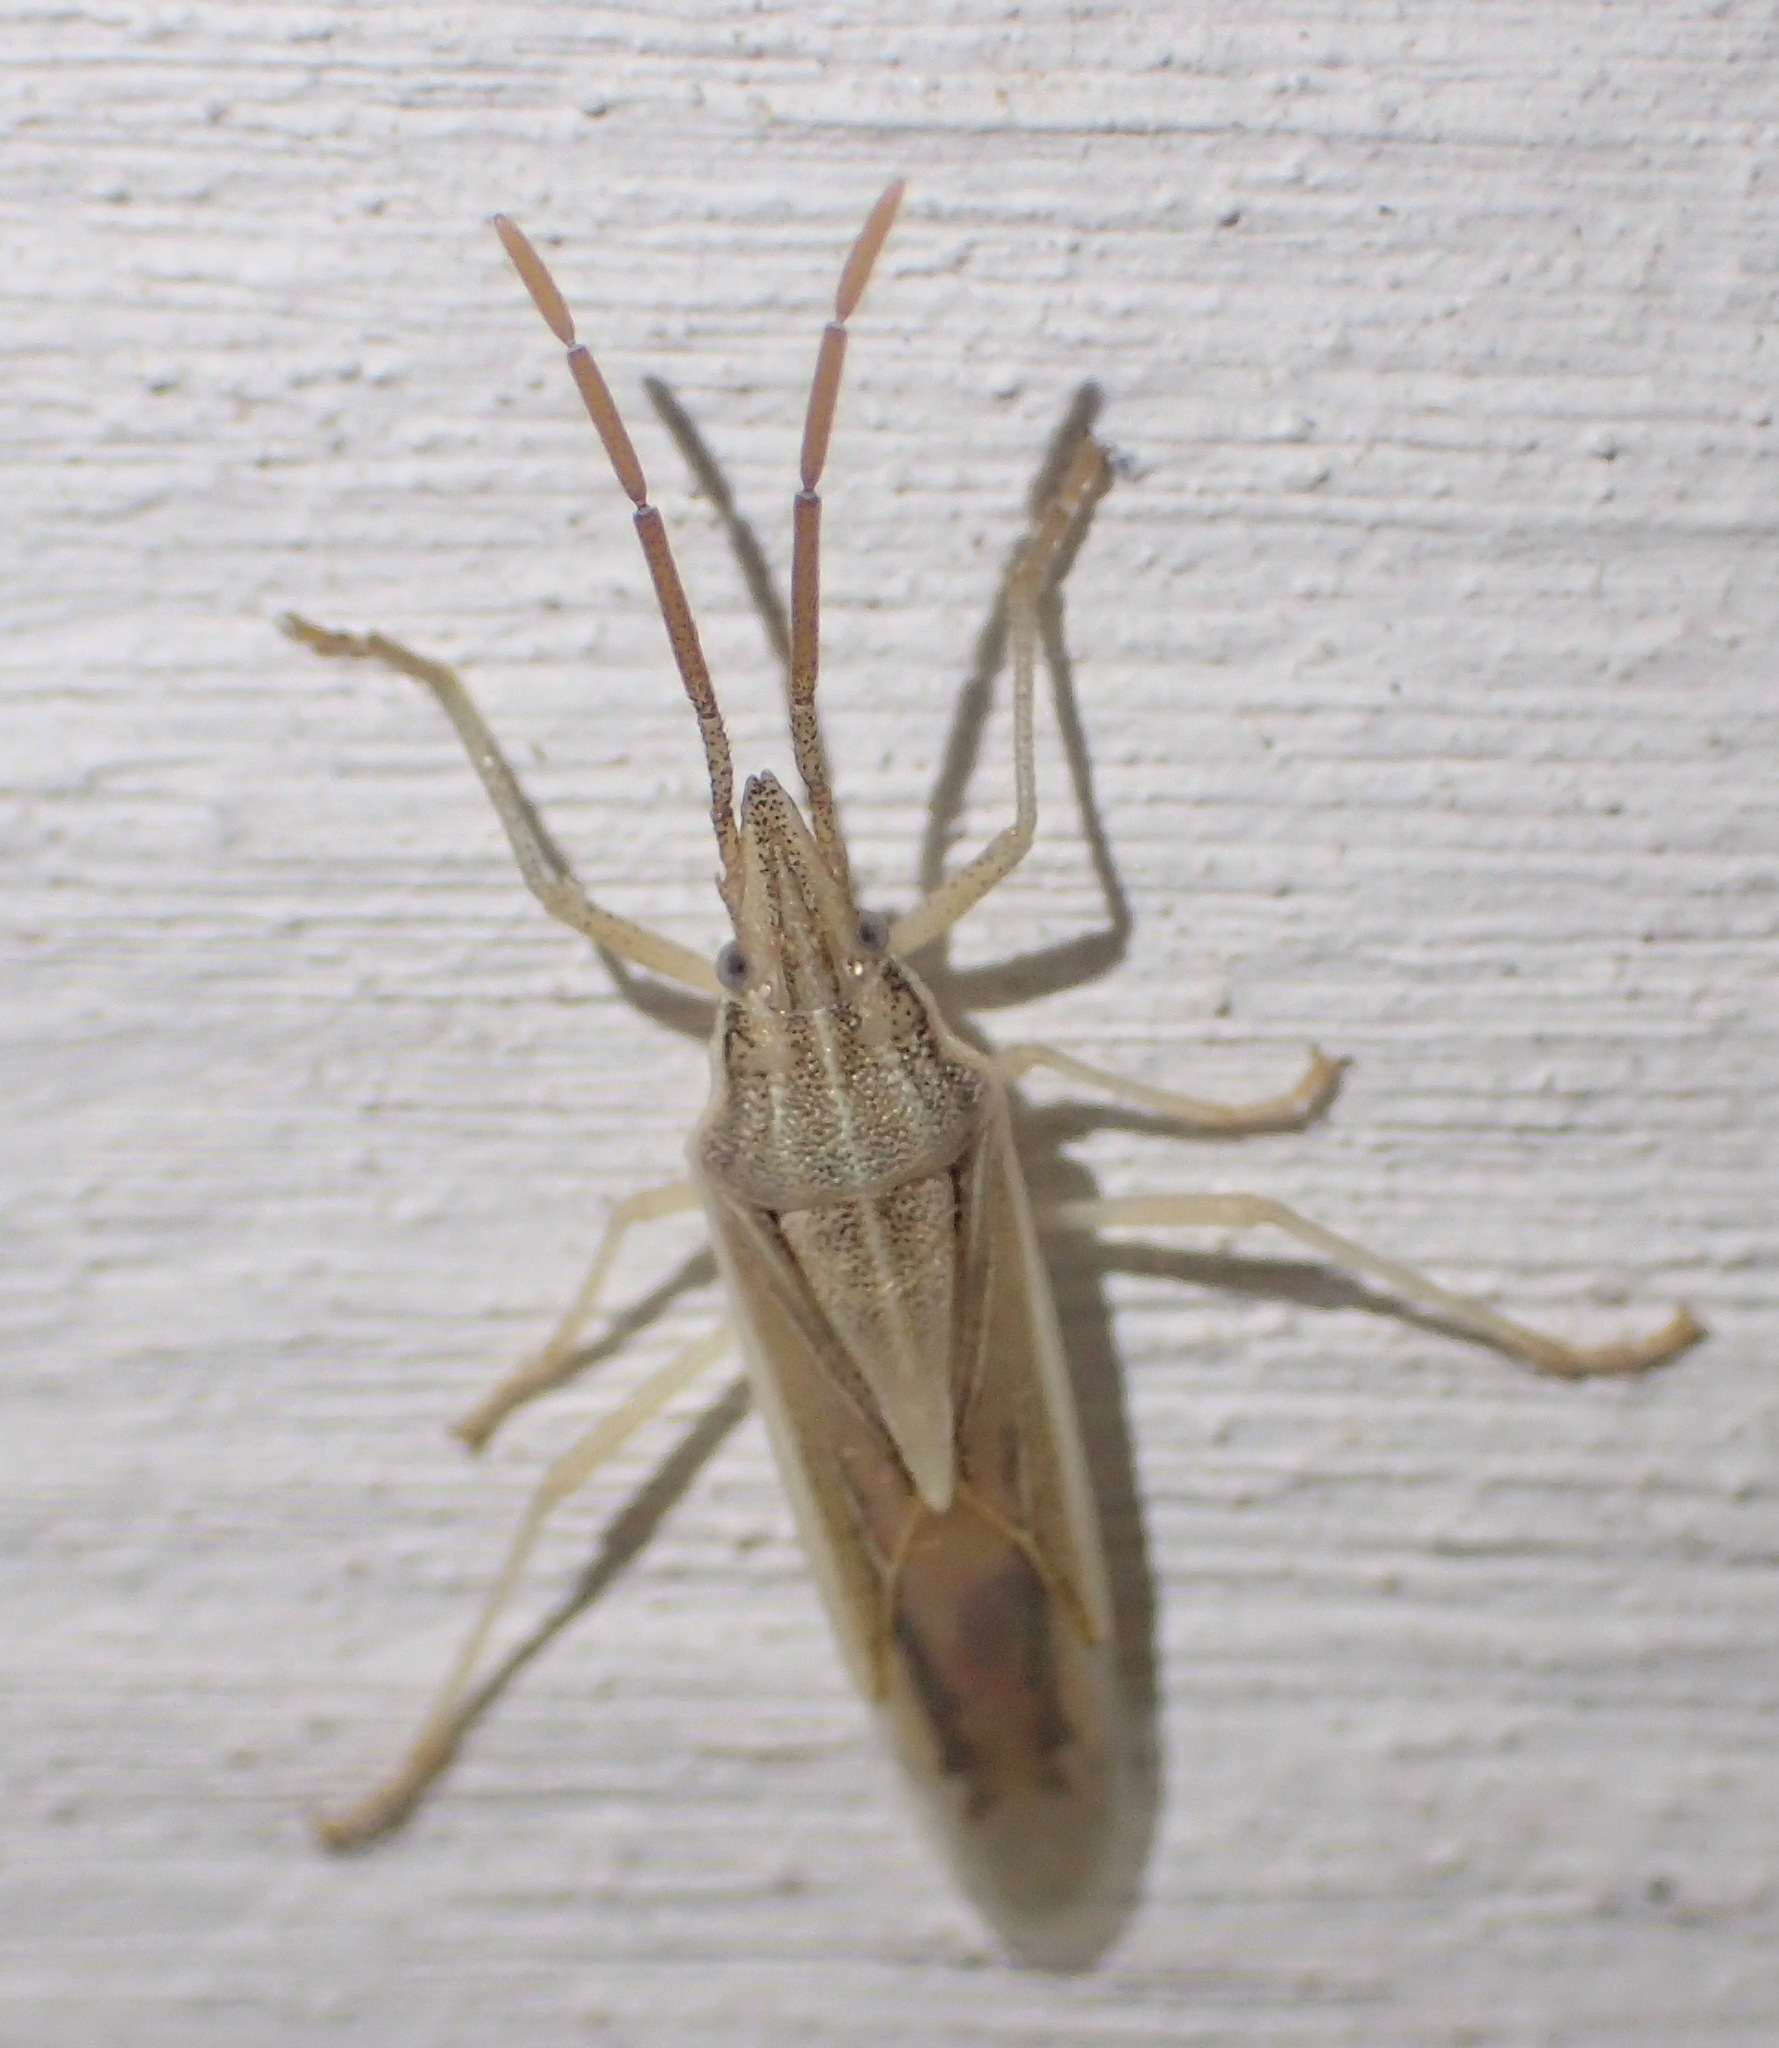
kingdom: Animalia
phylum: Arthropoda
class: Insecta
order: Hemiptera
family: Pentatomidae
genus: Mecidea
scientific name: Mecidea
